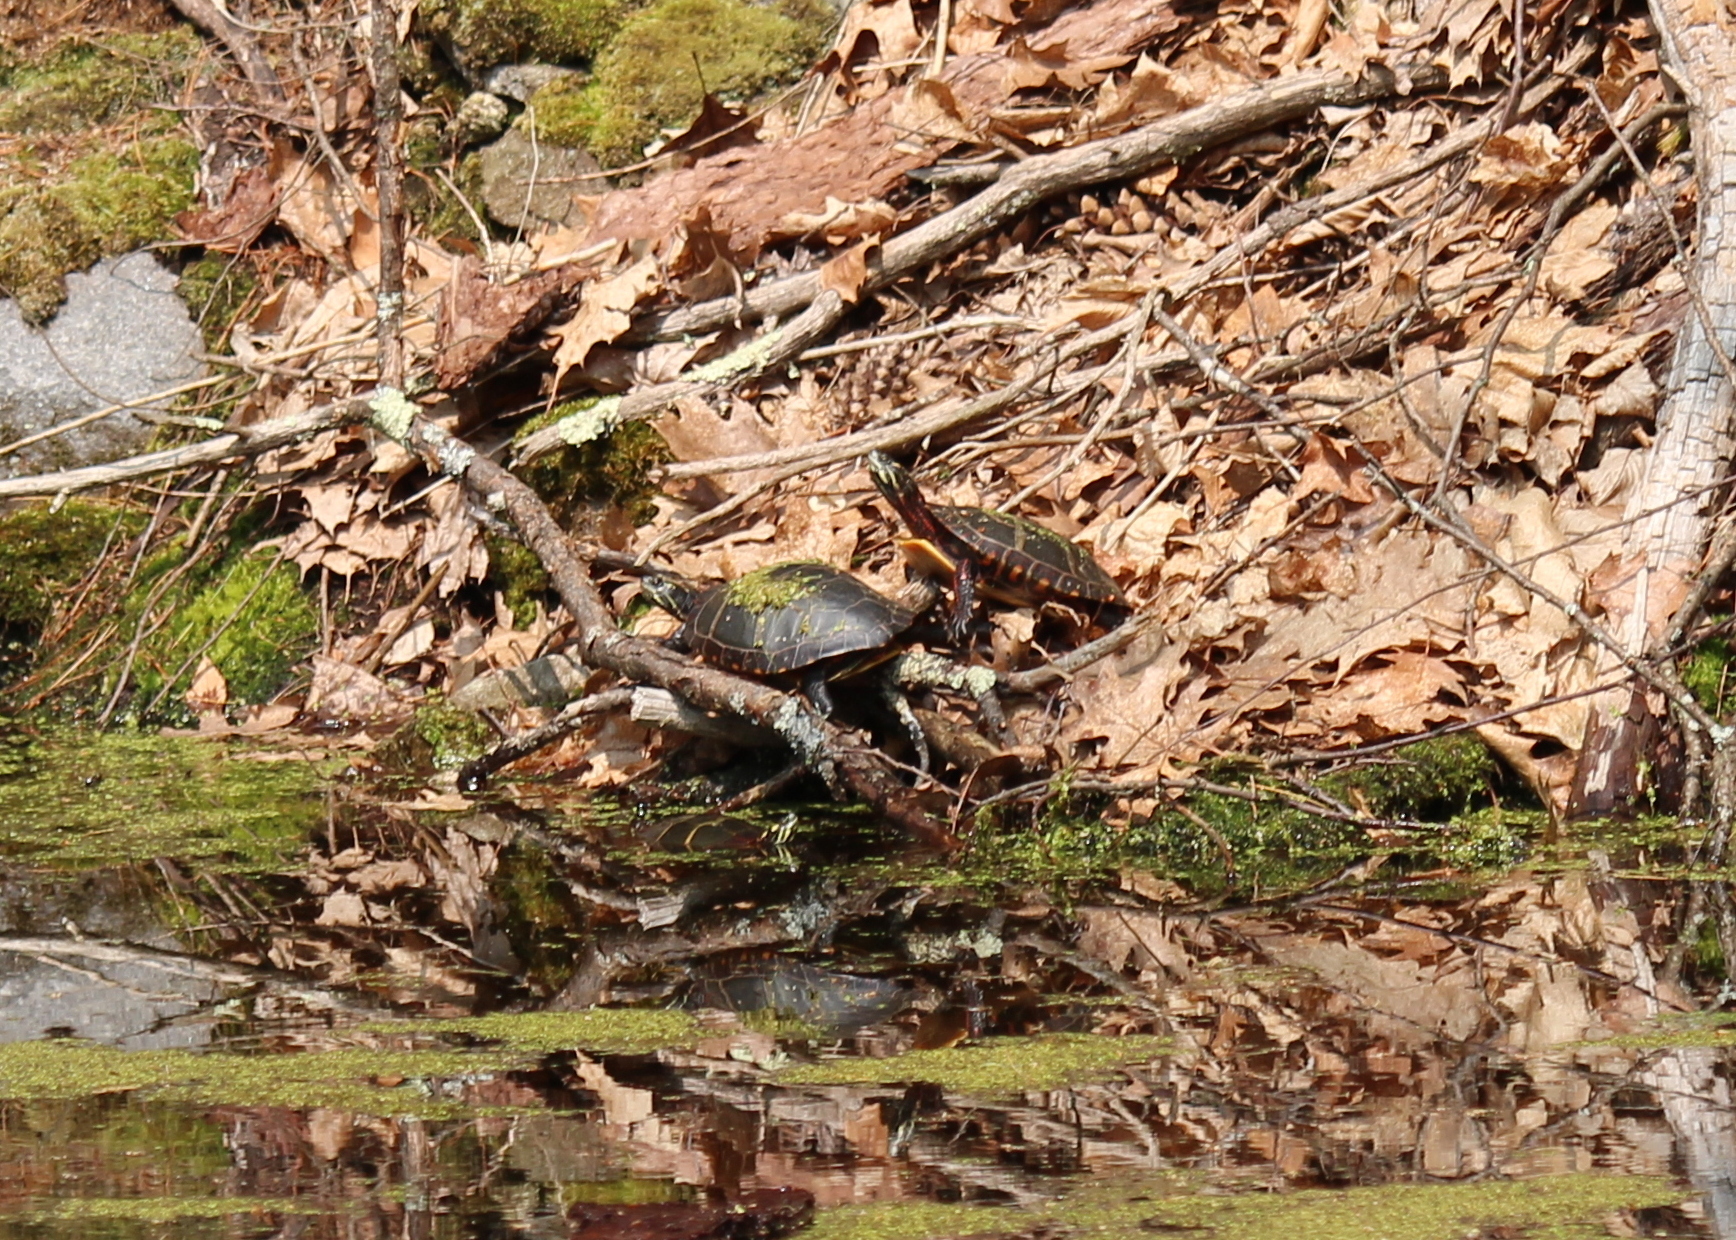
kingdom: Animalia
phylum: Chordata
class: Testudines
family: Emydidae
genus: Chrysemys
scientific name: Chrysemys picta
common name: Painted turtle
